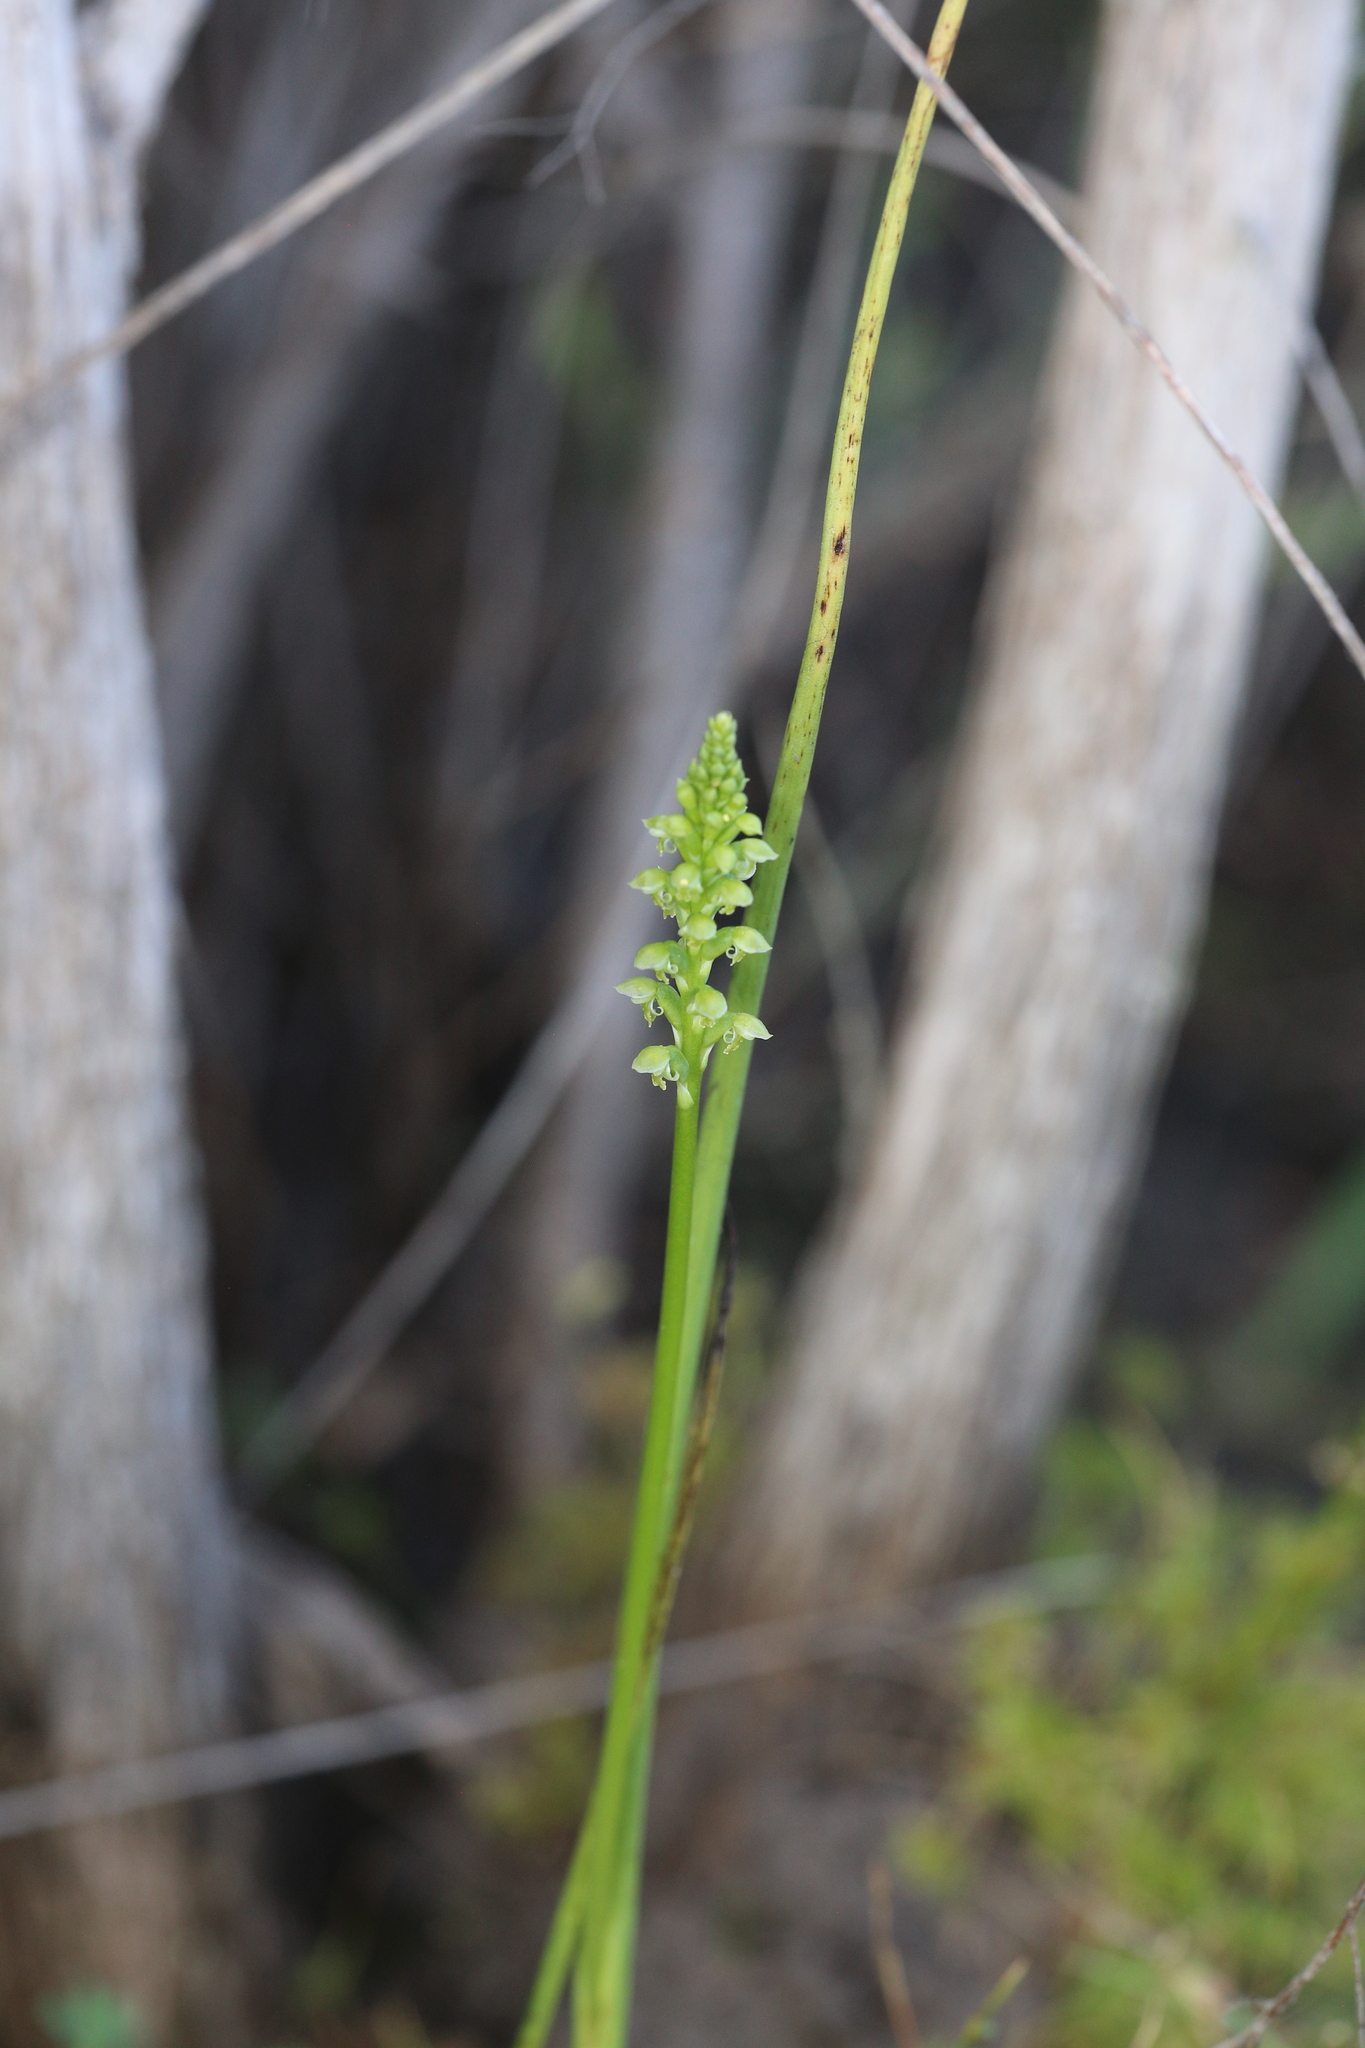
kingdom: Plantae
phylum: Tracheophyta
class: Liliopsida
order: Asparagales
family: Orchidaceae
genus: Microtis
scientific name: Microtis media
